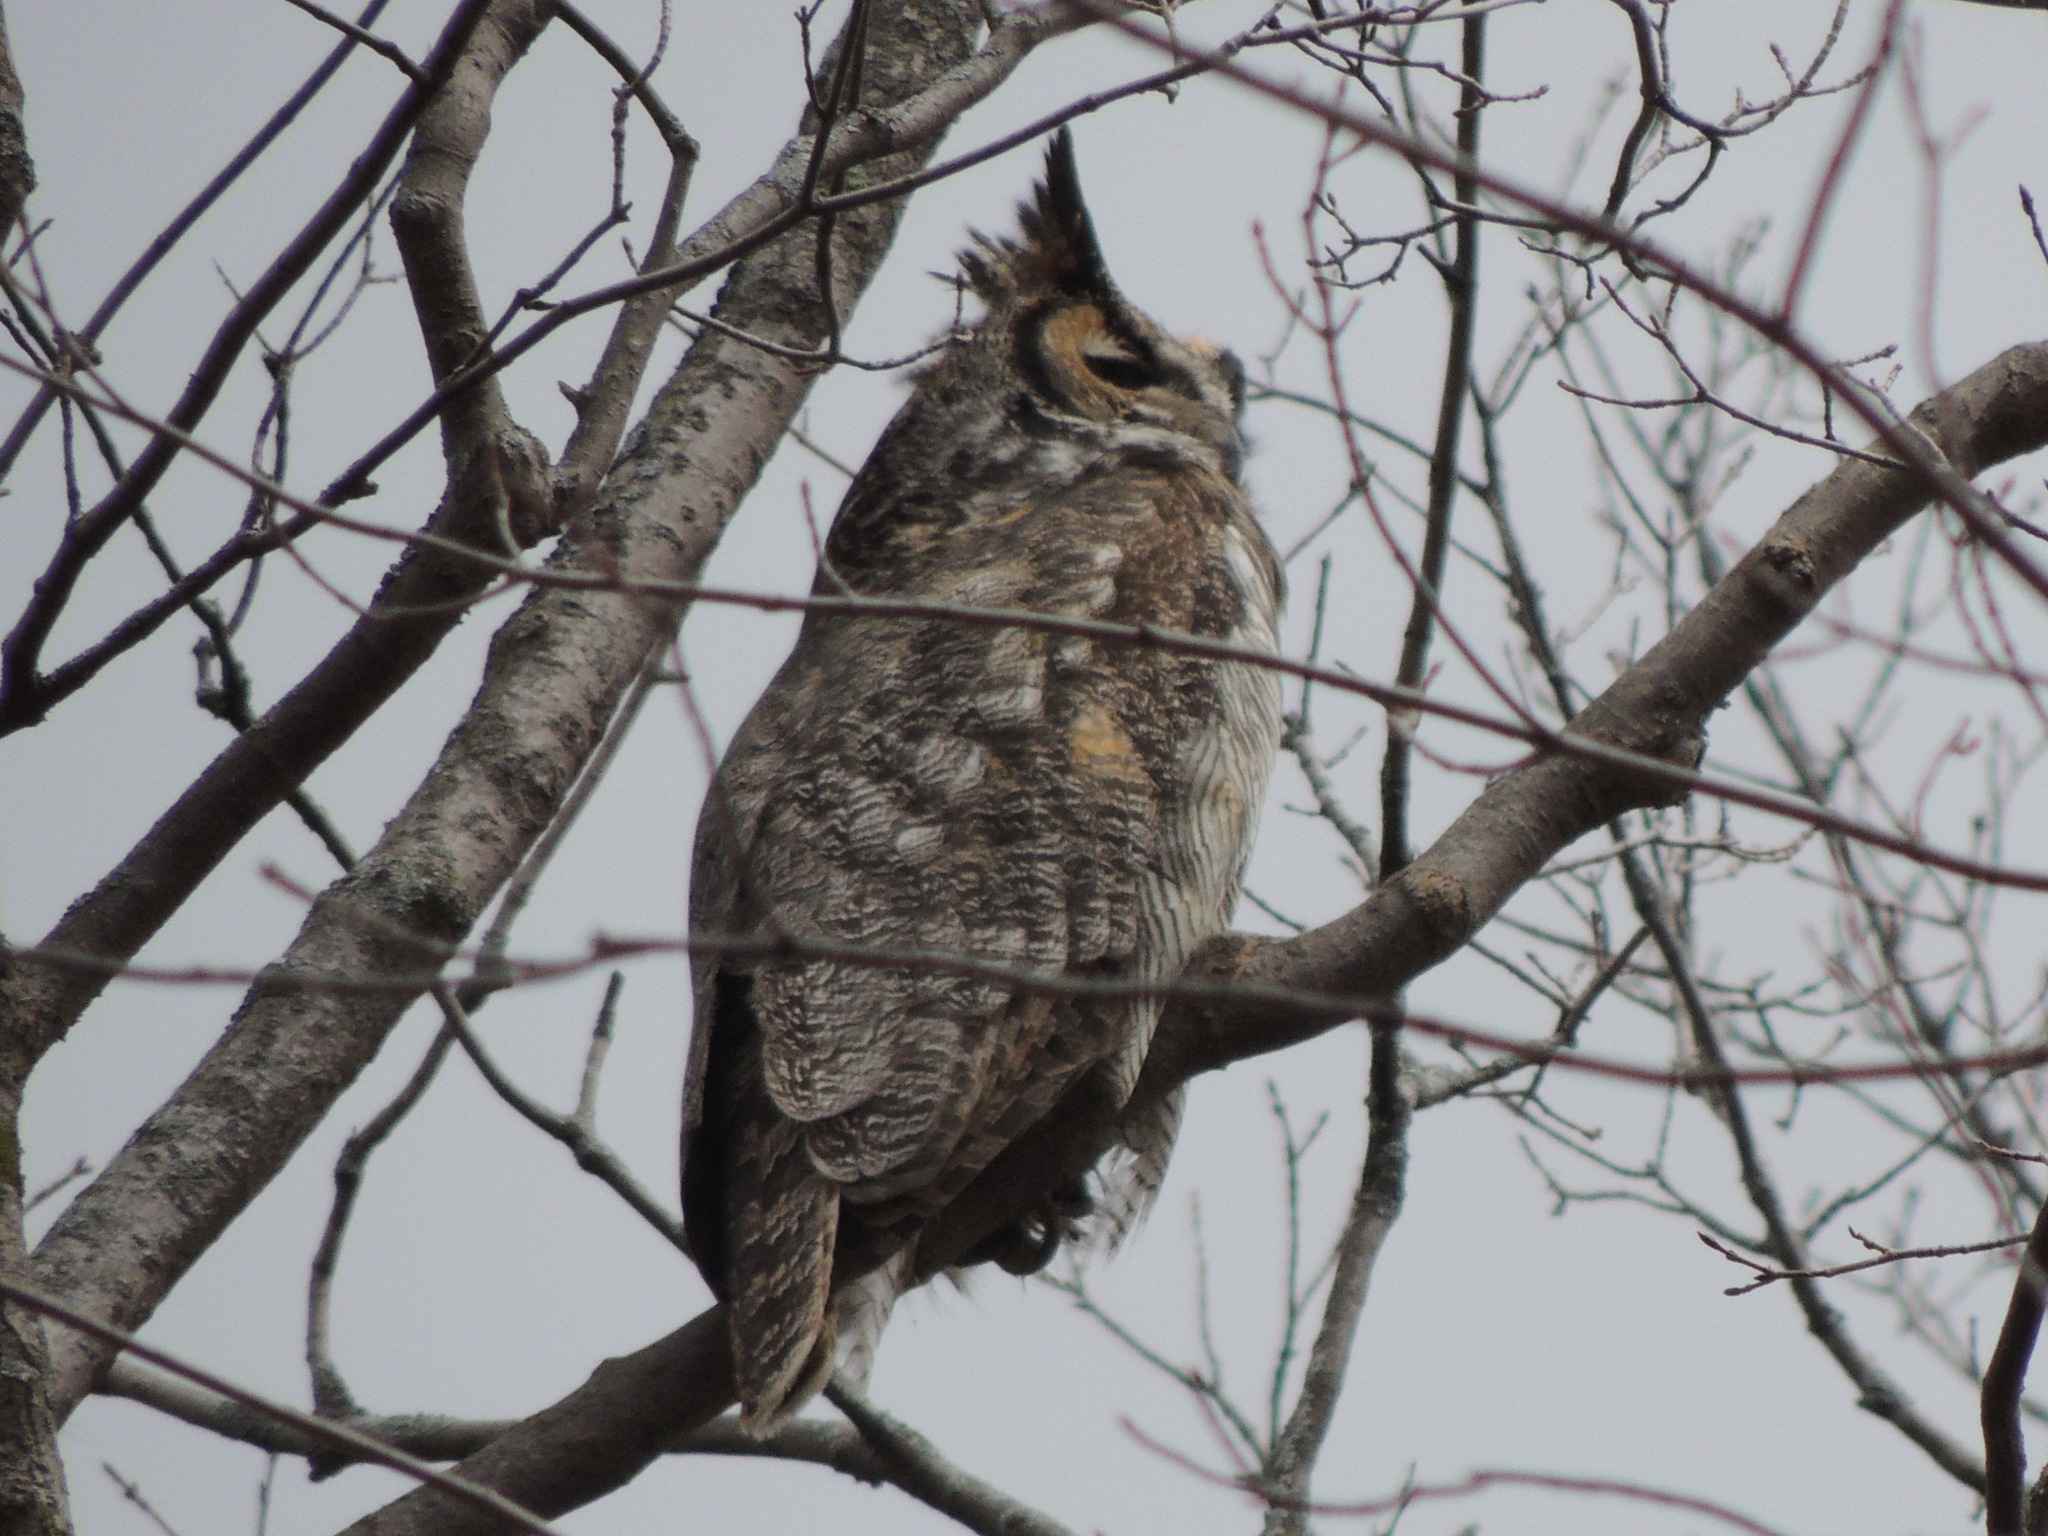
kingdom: Animalia
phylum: Chordata
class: Aves
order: Strigiformes
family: Strigidae
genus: Bubo
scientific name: Bubo virginianus
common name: Great horned owl
